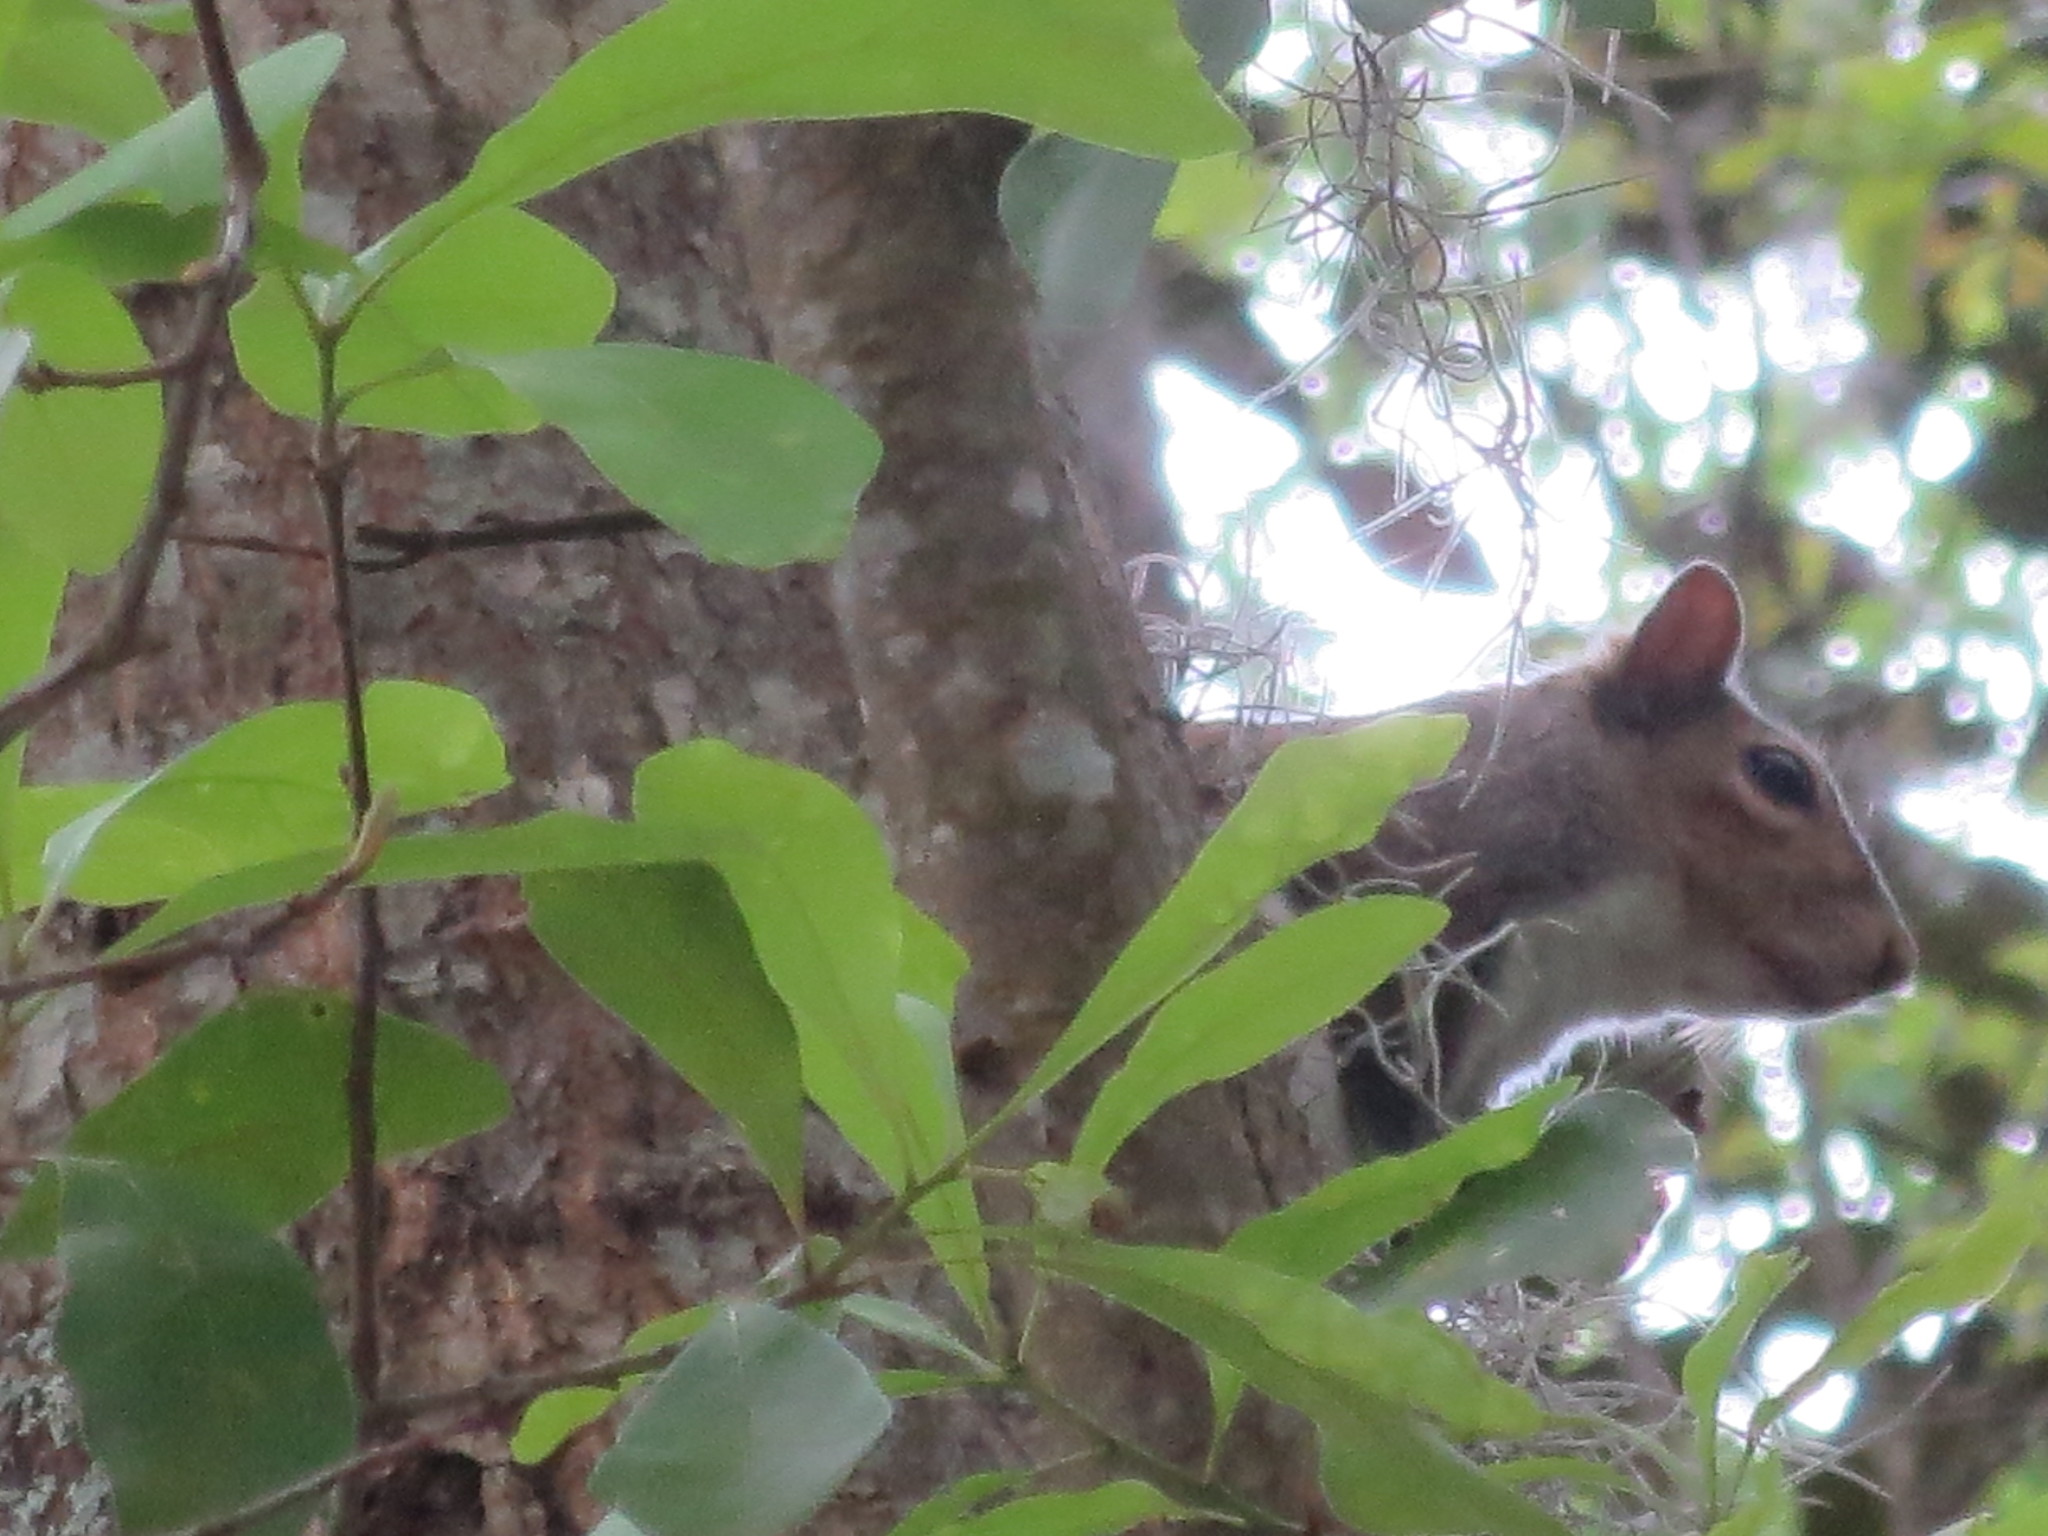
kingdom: Animalia
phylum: Chordata
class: Mammalia
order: Rodentia
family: Sciuridae
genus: Sciurus
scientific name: Sciurus carolinensis
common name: Eastern gray squirrel
